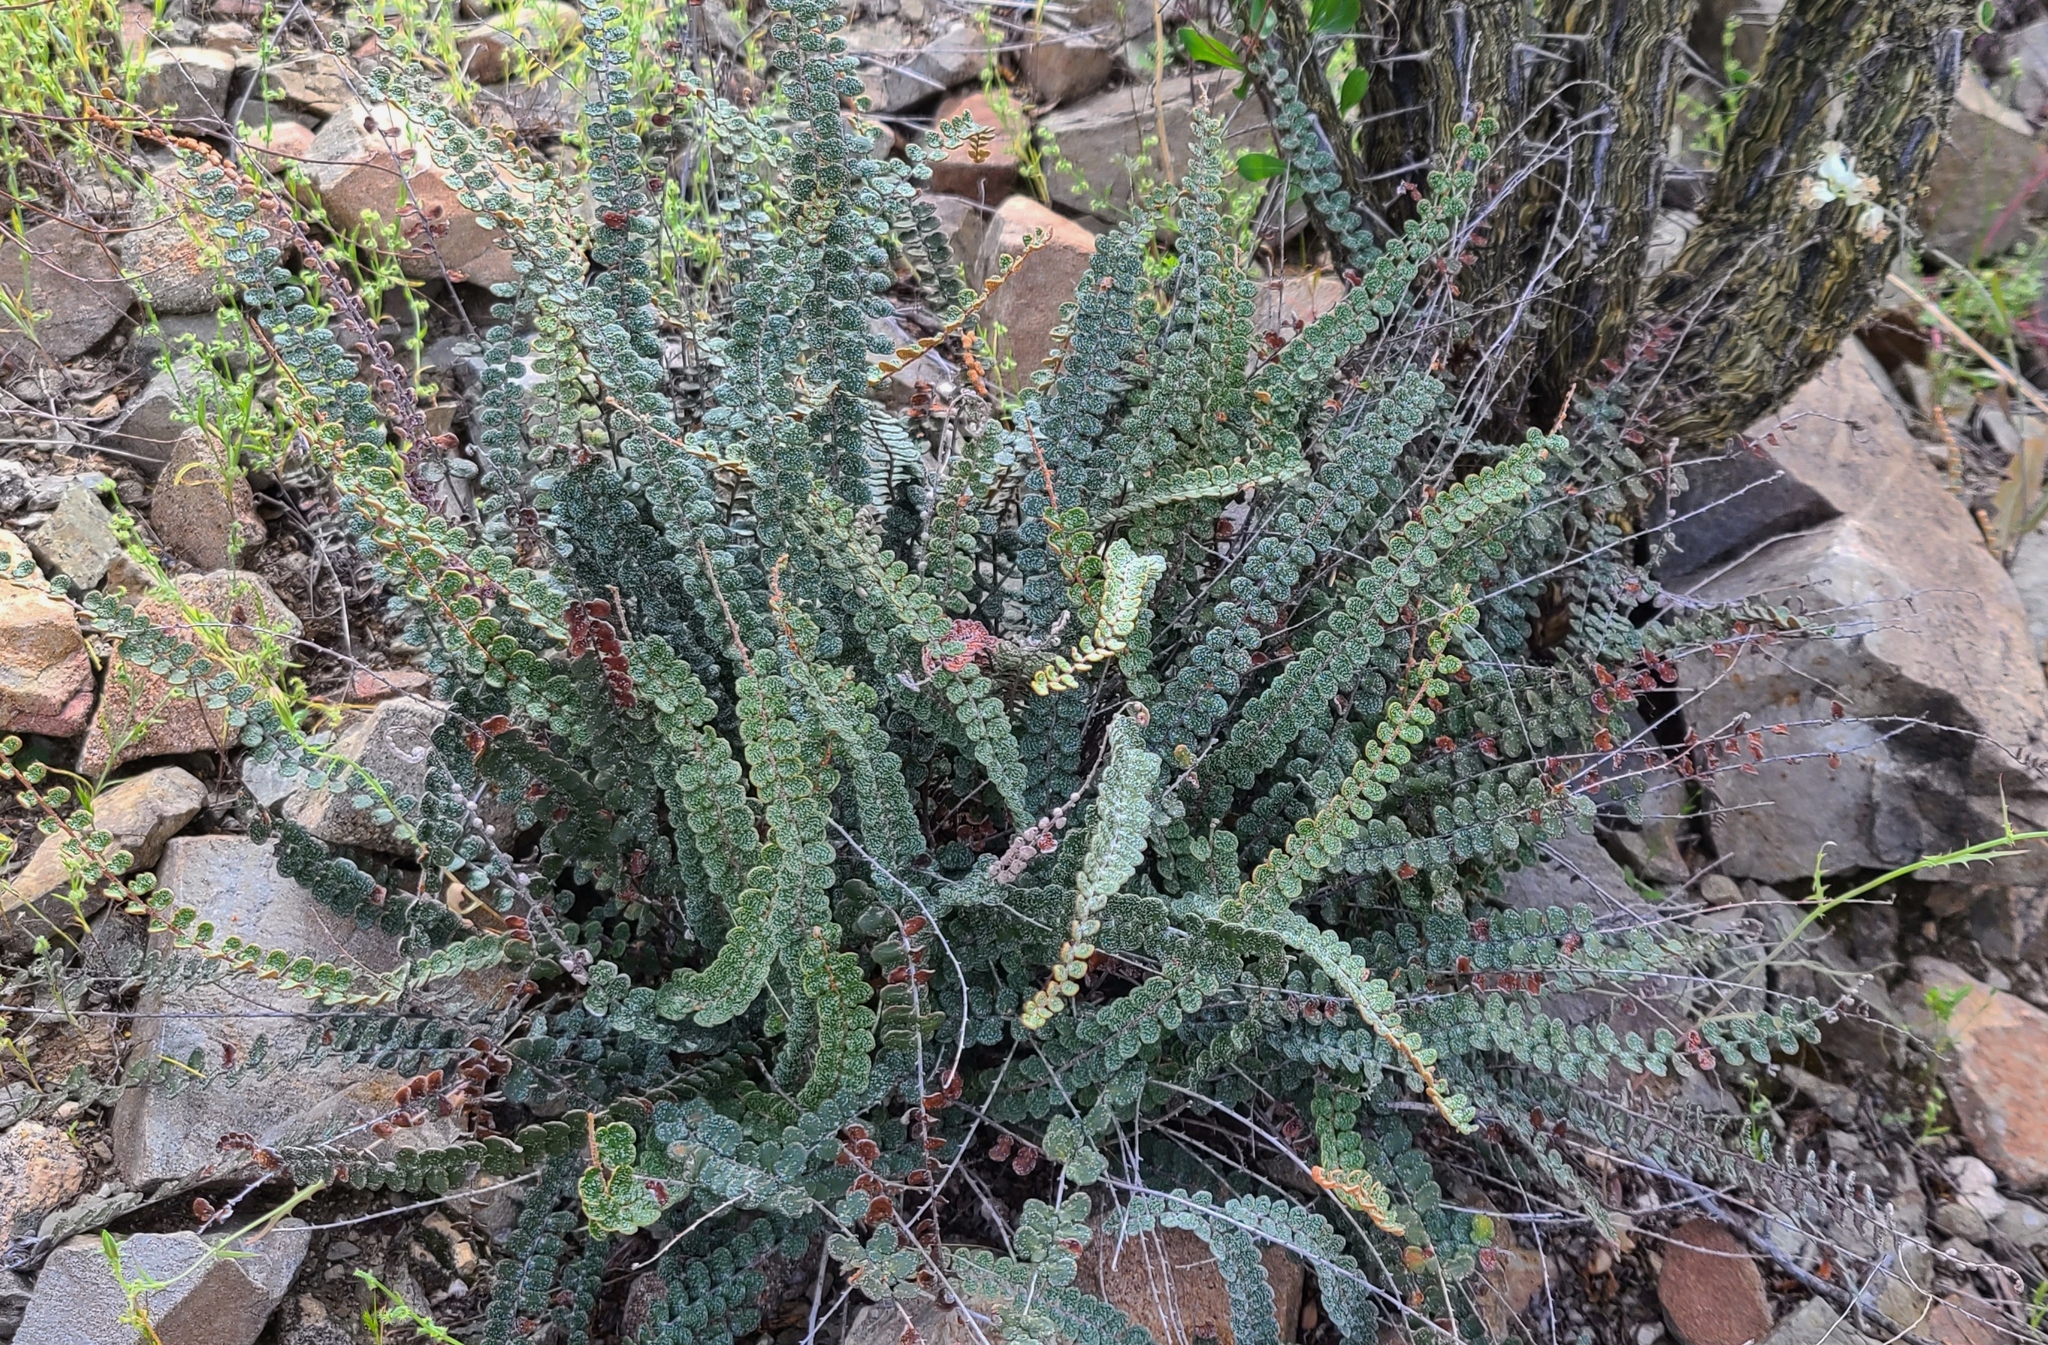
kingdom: Plantae
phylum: Tracheophyta
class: Polypodiopsida
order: Polypodiales
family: Pteridaceae
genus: Astrolepis
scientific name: Astrolepis cochisensis
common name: Scaly cloak fern
